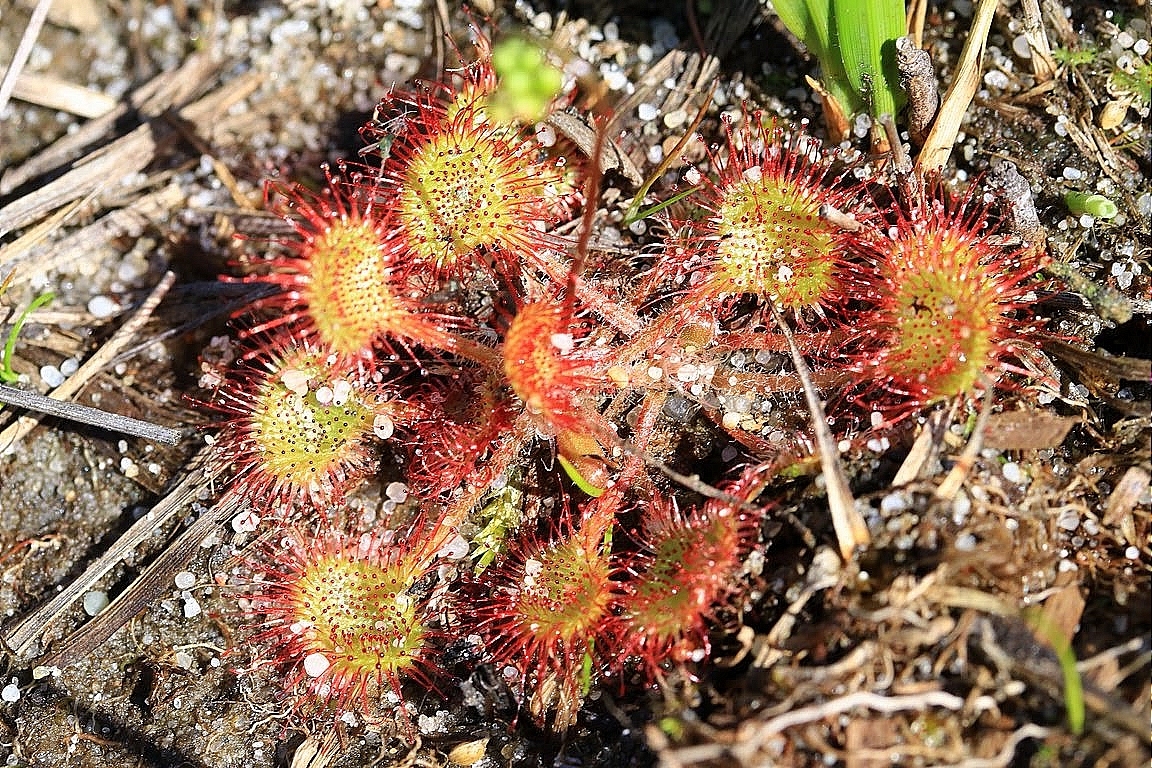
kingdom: Plantae
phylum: Tracheophyta
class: Magnoliopsida
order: Caryophyllales
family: Droseraceae
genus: Drosera
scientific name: Drosera rotundifolia
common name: Round-leaved sundew
